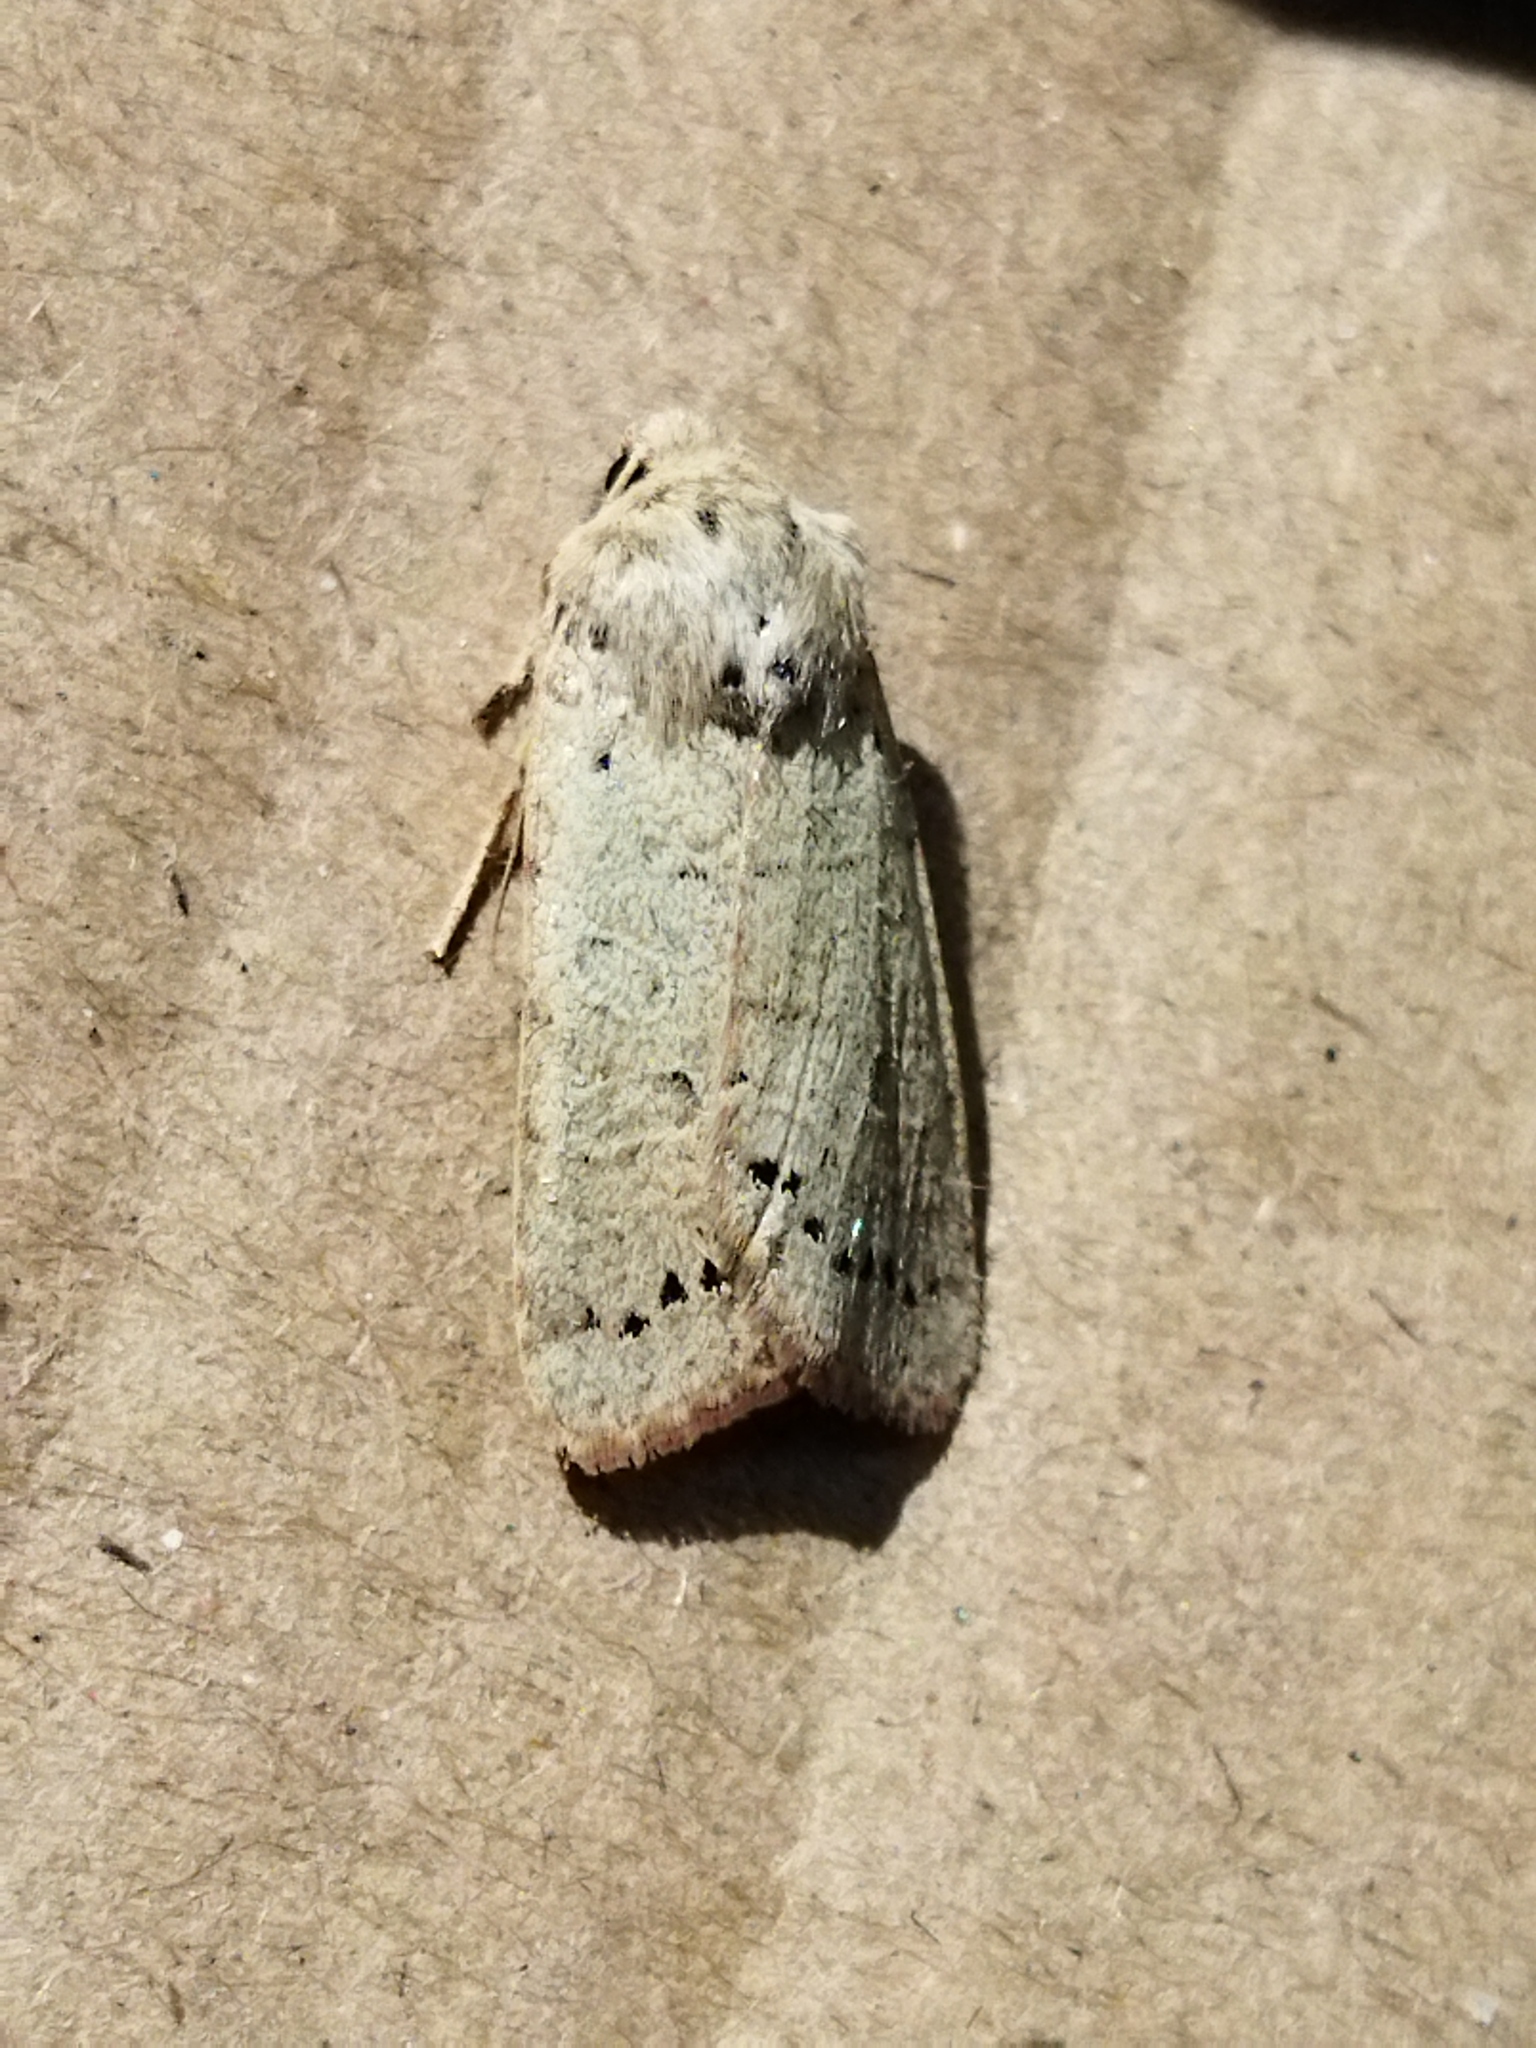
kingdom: Animalia
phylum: Arthropoda
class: Insecta
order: Lepidoptera
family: Noctuidae
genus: Agrochola
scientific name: Agrochola osthelderi
